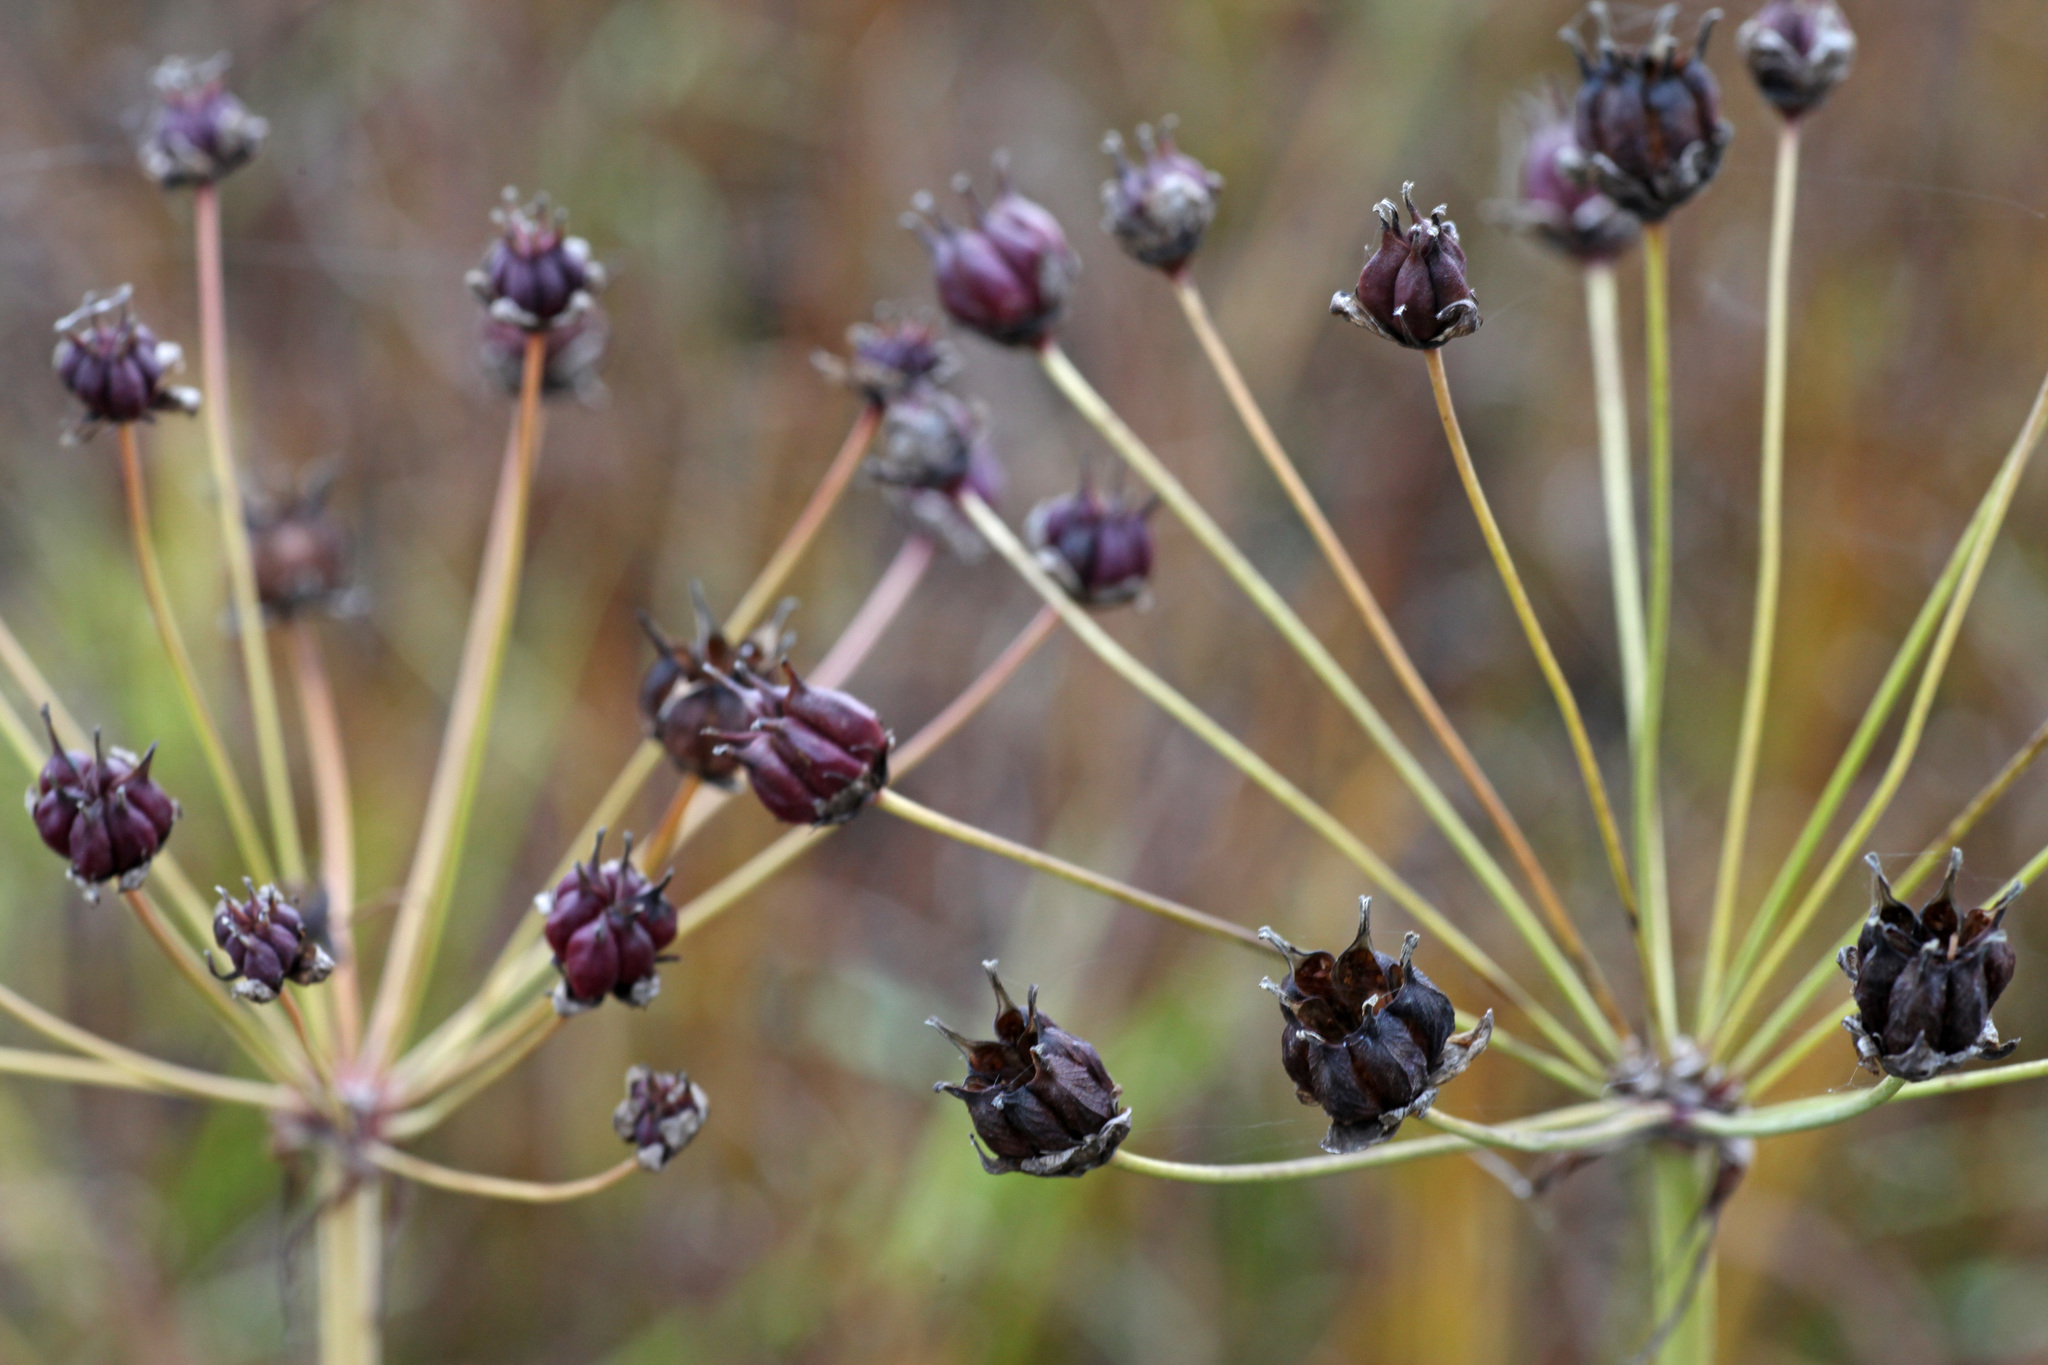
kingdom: Plantae
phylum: Tracheophyta
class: Liliopsida
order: Alismatales
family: Butomaceae
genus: Butomus
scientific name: Butomus umbellatus
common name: Flowering-rush
